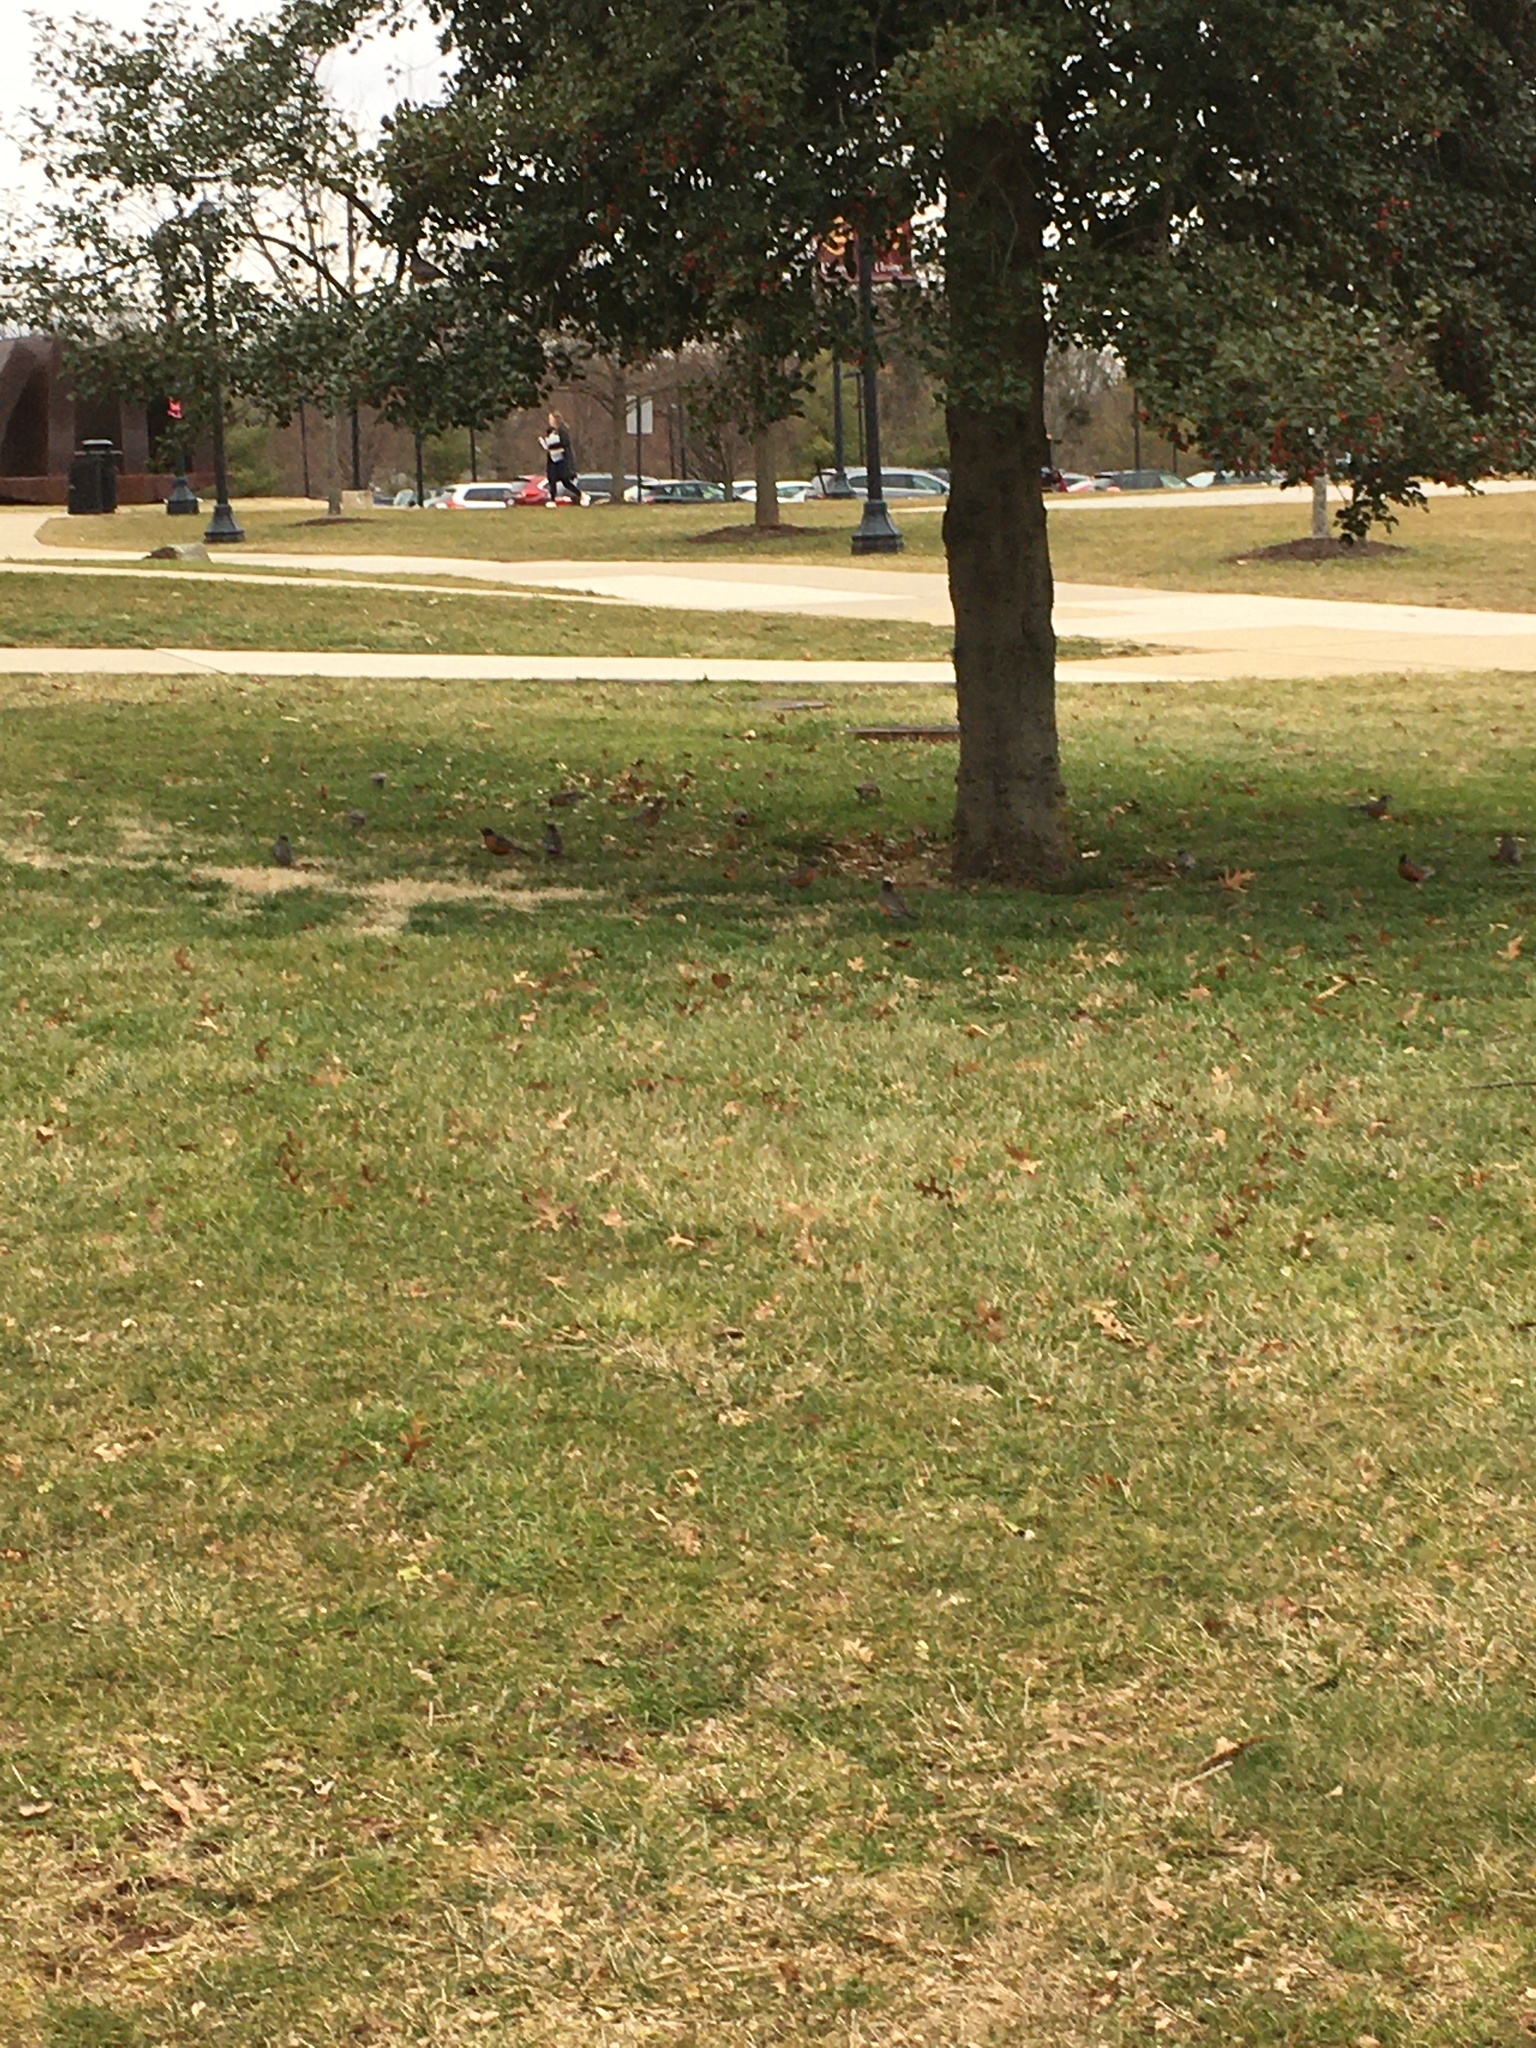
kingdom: Animalia
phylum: Chordata
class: Aves
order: Passeriformes
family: Turdidae
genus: Turdus
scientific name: Turdus migratorius
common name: American robin
